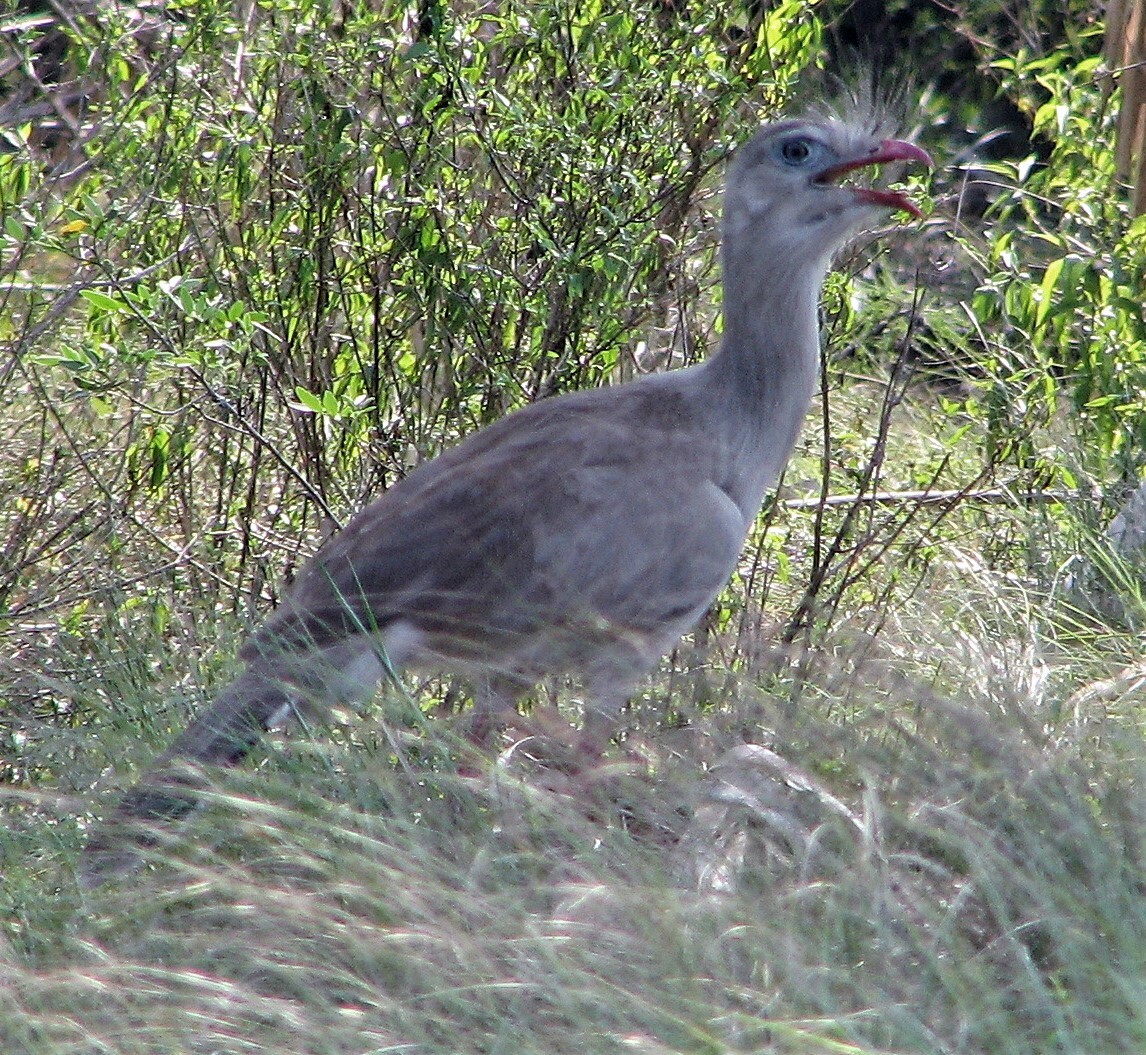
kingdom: Animalia
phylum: Chordata
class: Aves
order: Cariamiformes
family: Cariamidae
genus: Cariama
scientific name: Cariama cristata
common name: Red-legged seriema
